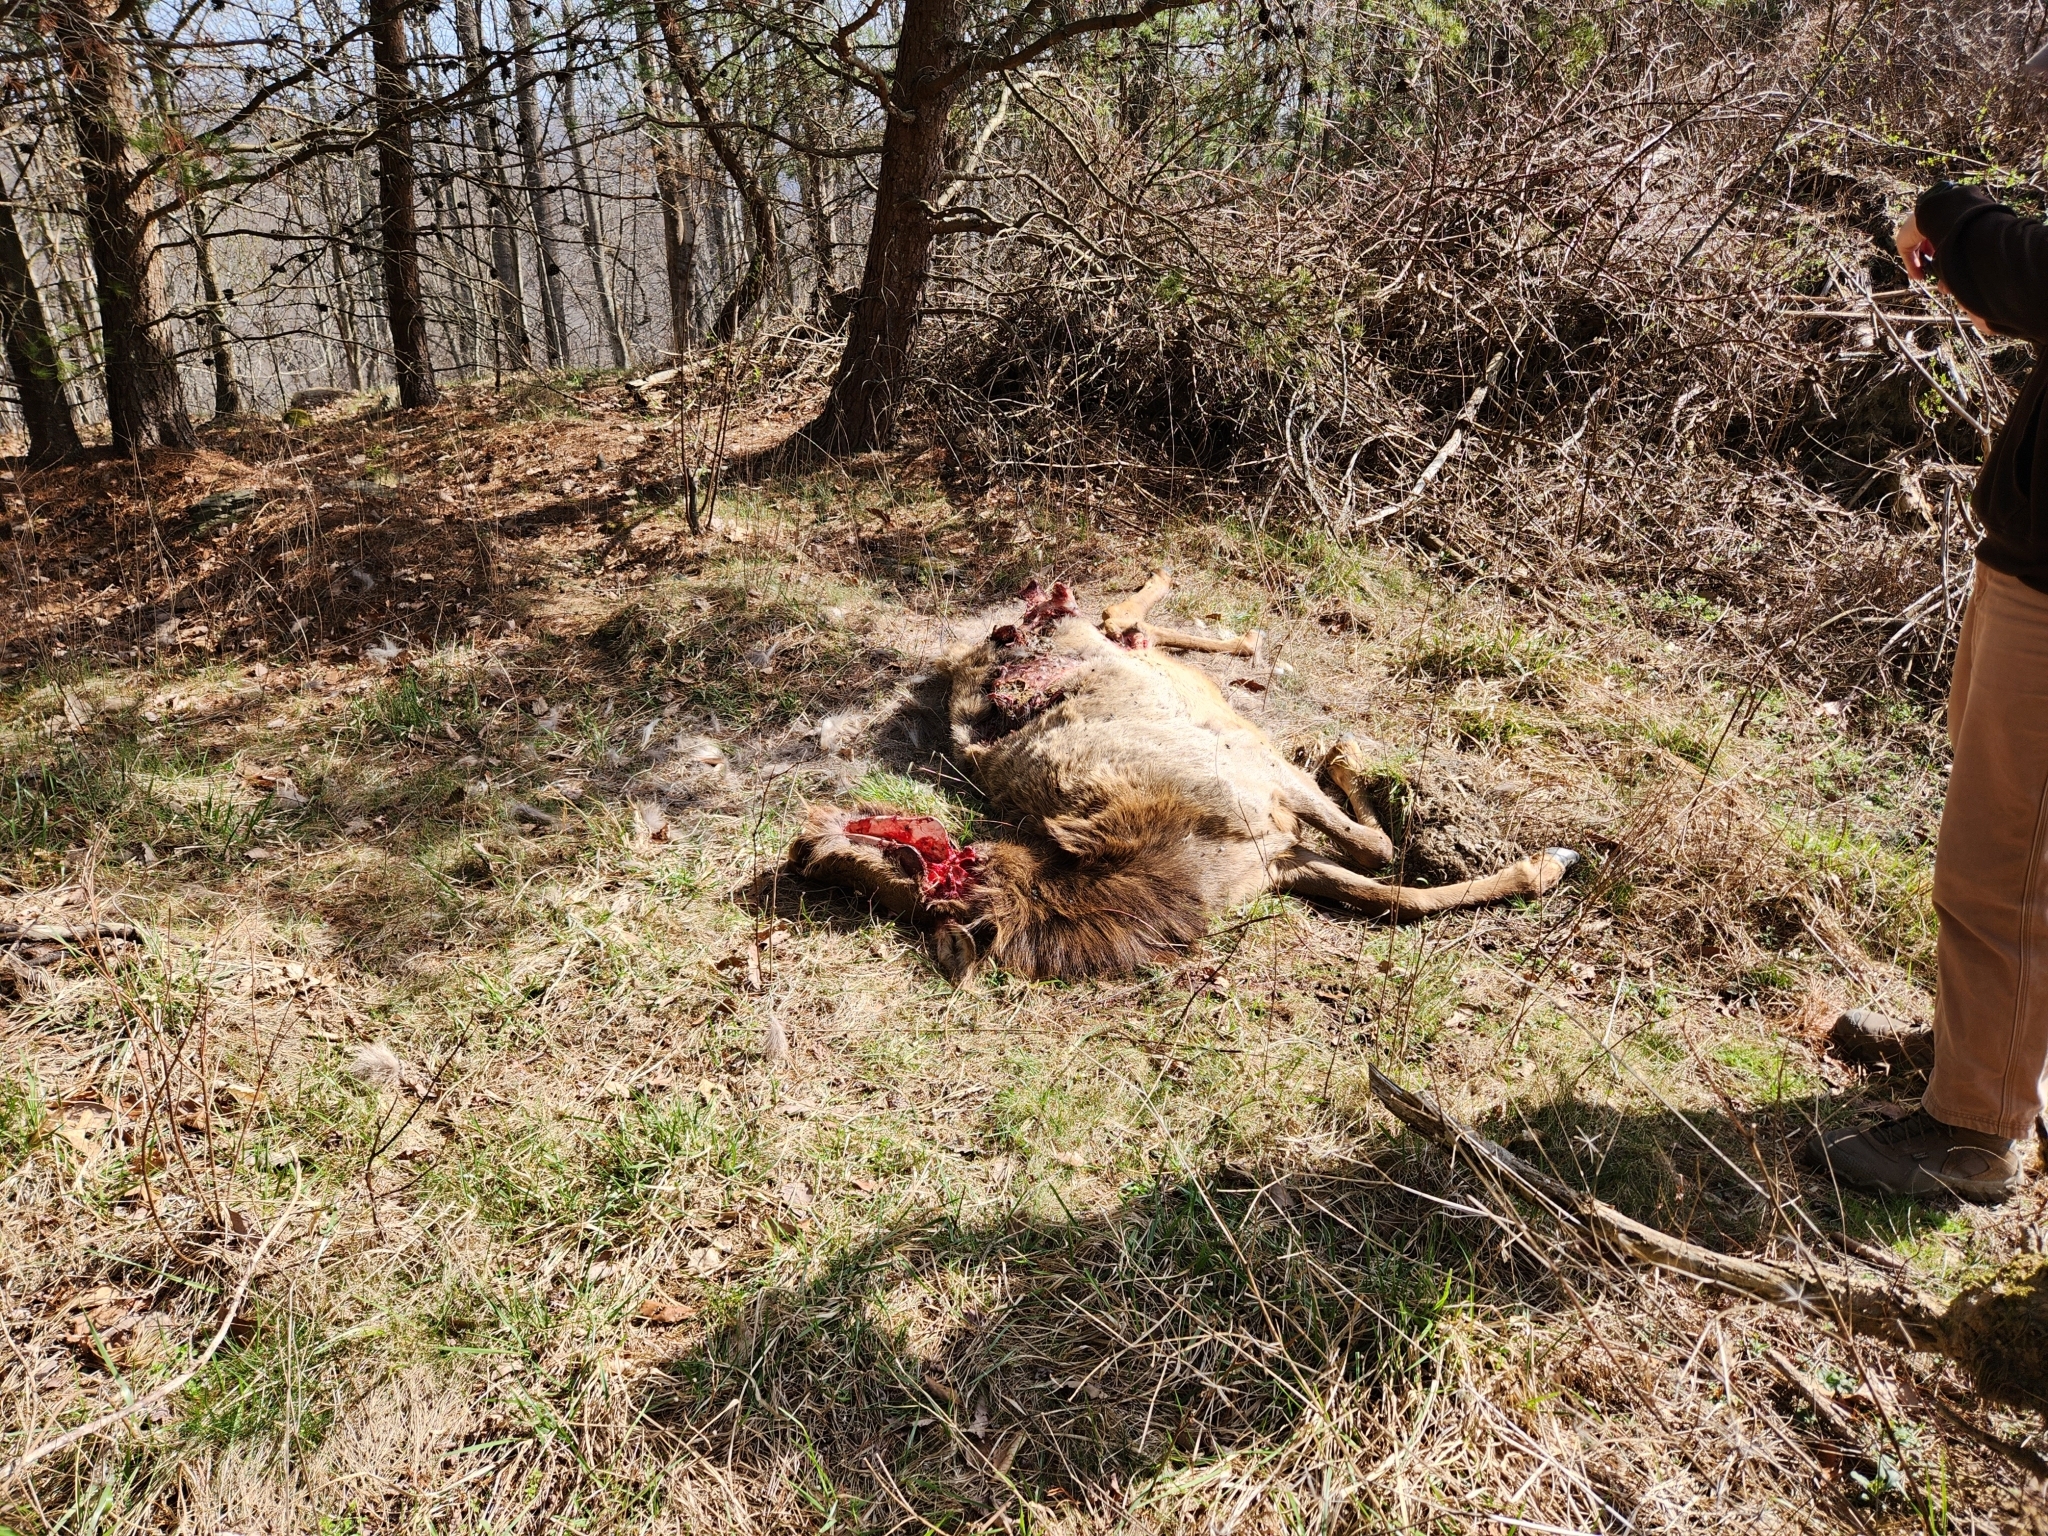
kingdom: Animalia
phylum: Chordata
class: Mammalia
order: Artiodactyla
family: Cervidae
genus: Cervus
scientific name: Cervus elaphus
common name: Red deer
